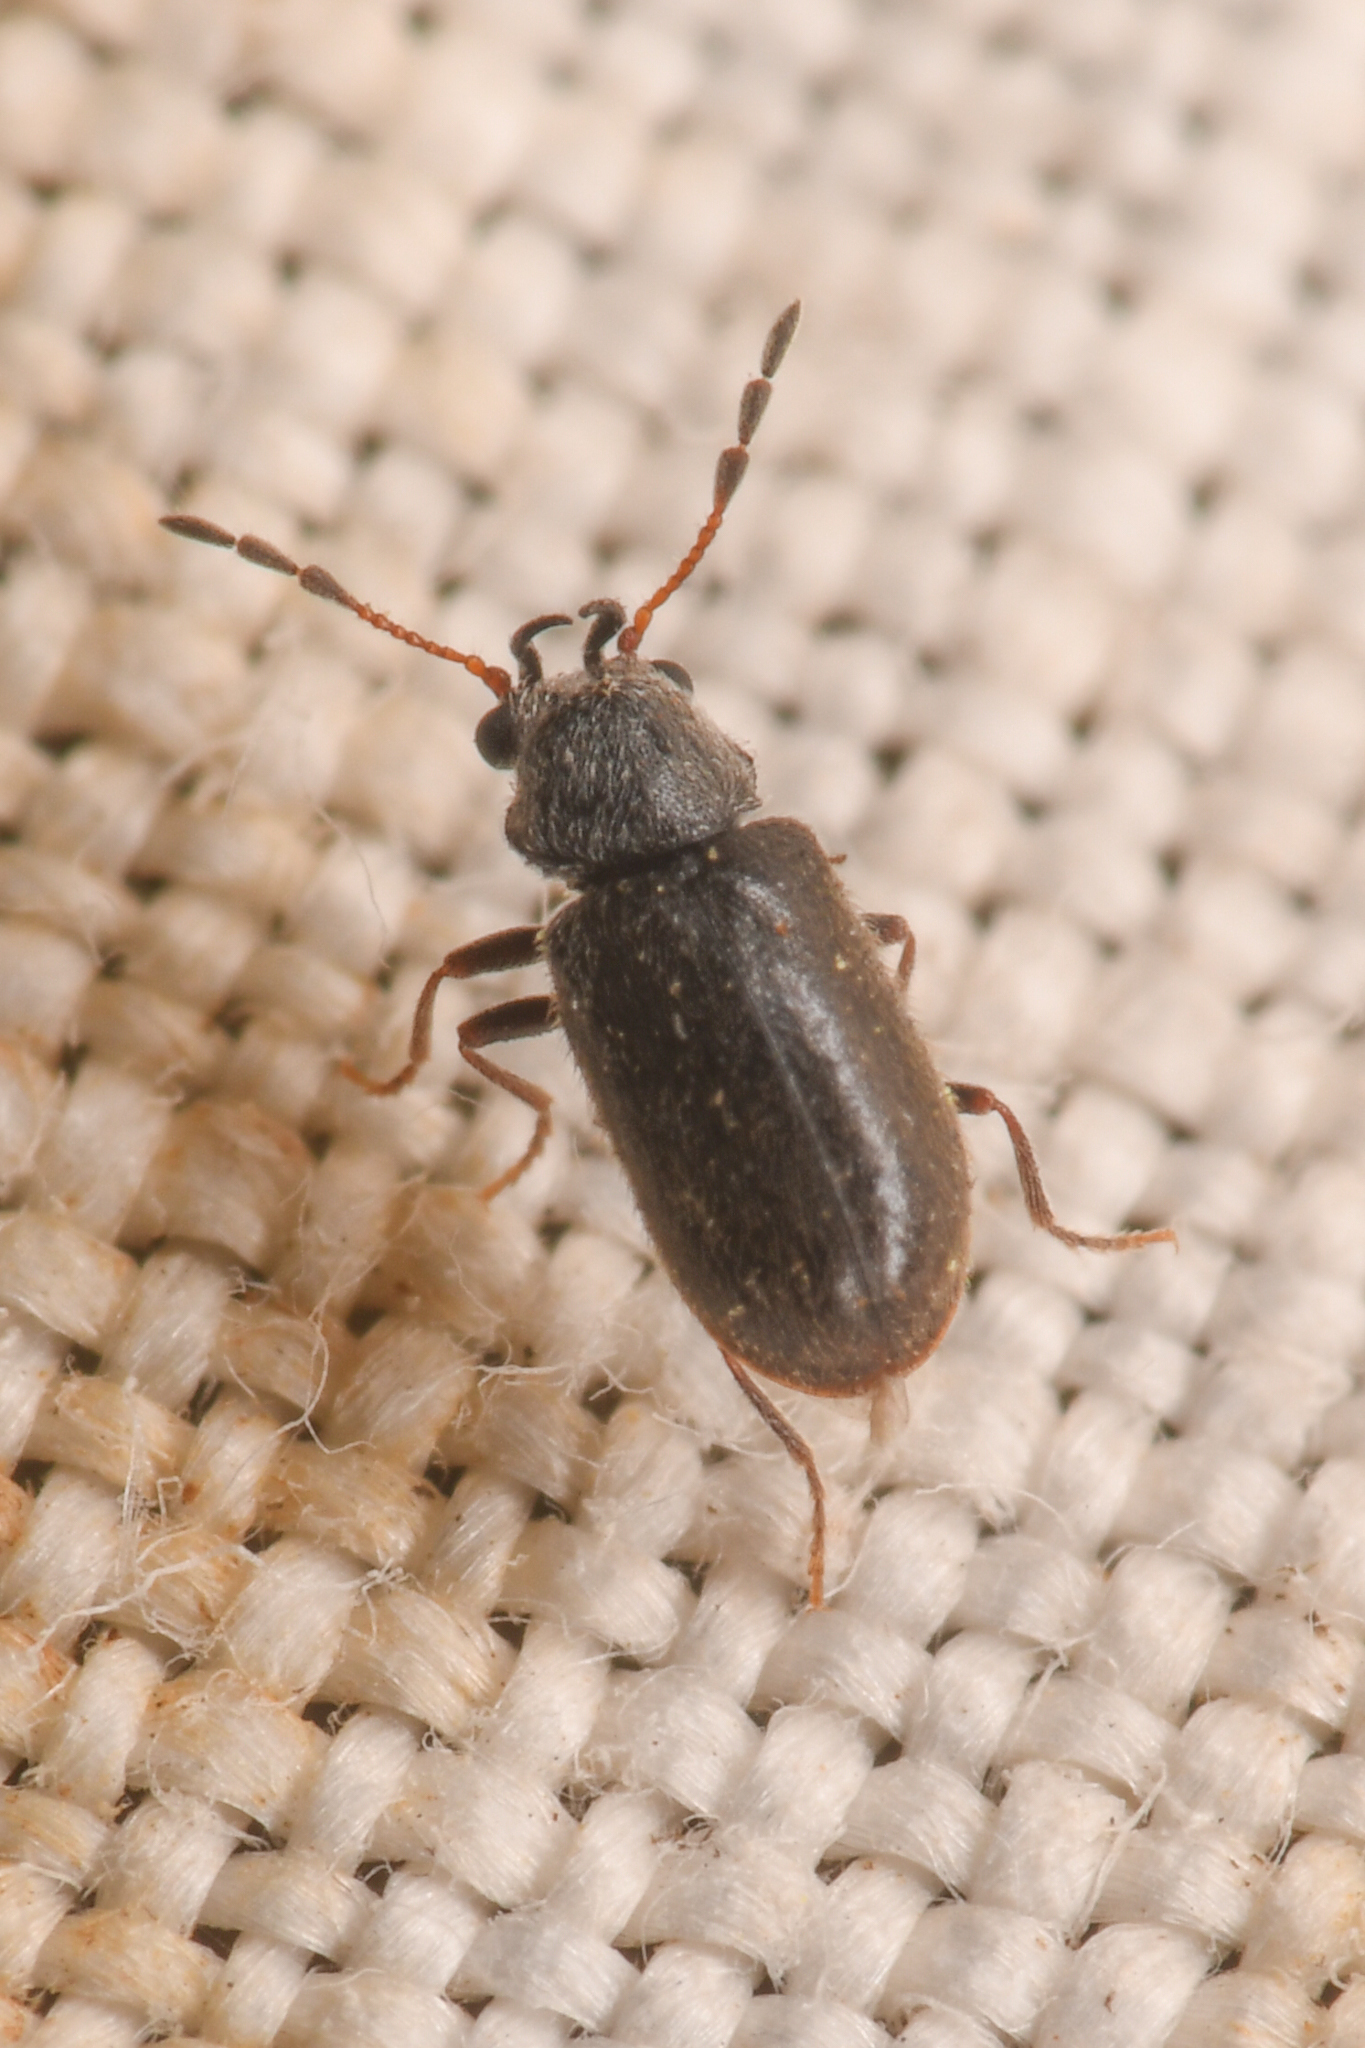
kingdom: Animalia
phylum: Arthropoda
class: Insecta
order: Coleoptera
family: Anobiidae
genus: Ozognathus
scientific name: Ozognathus cornutus
